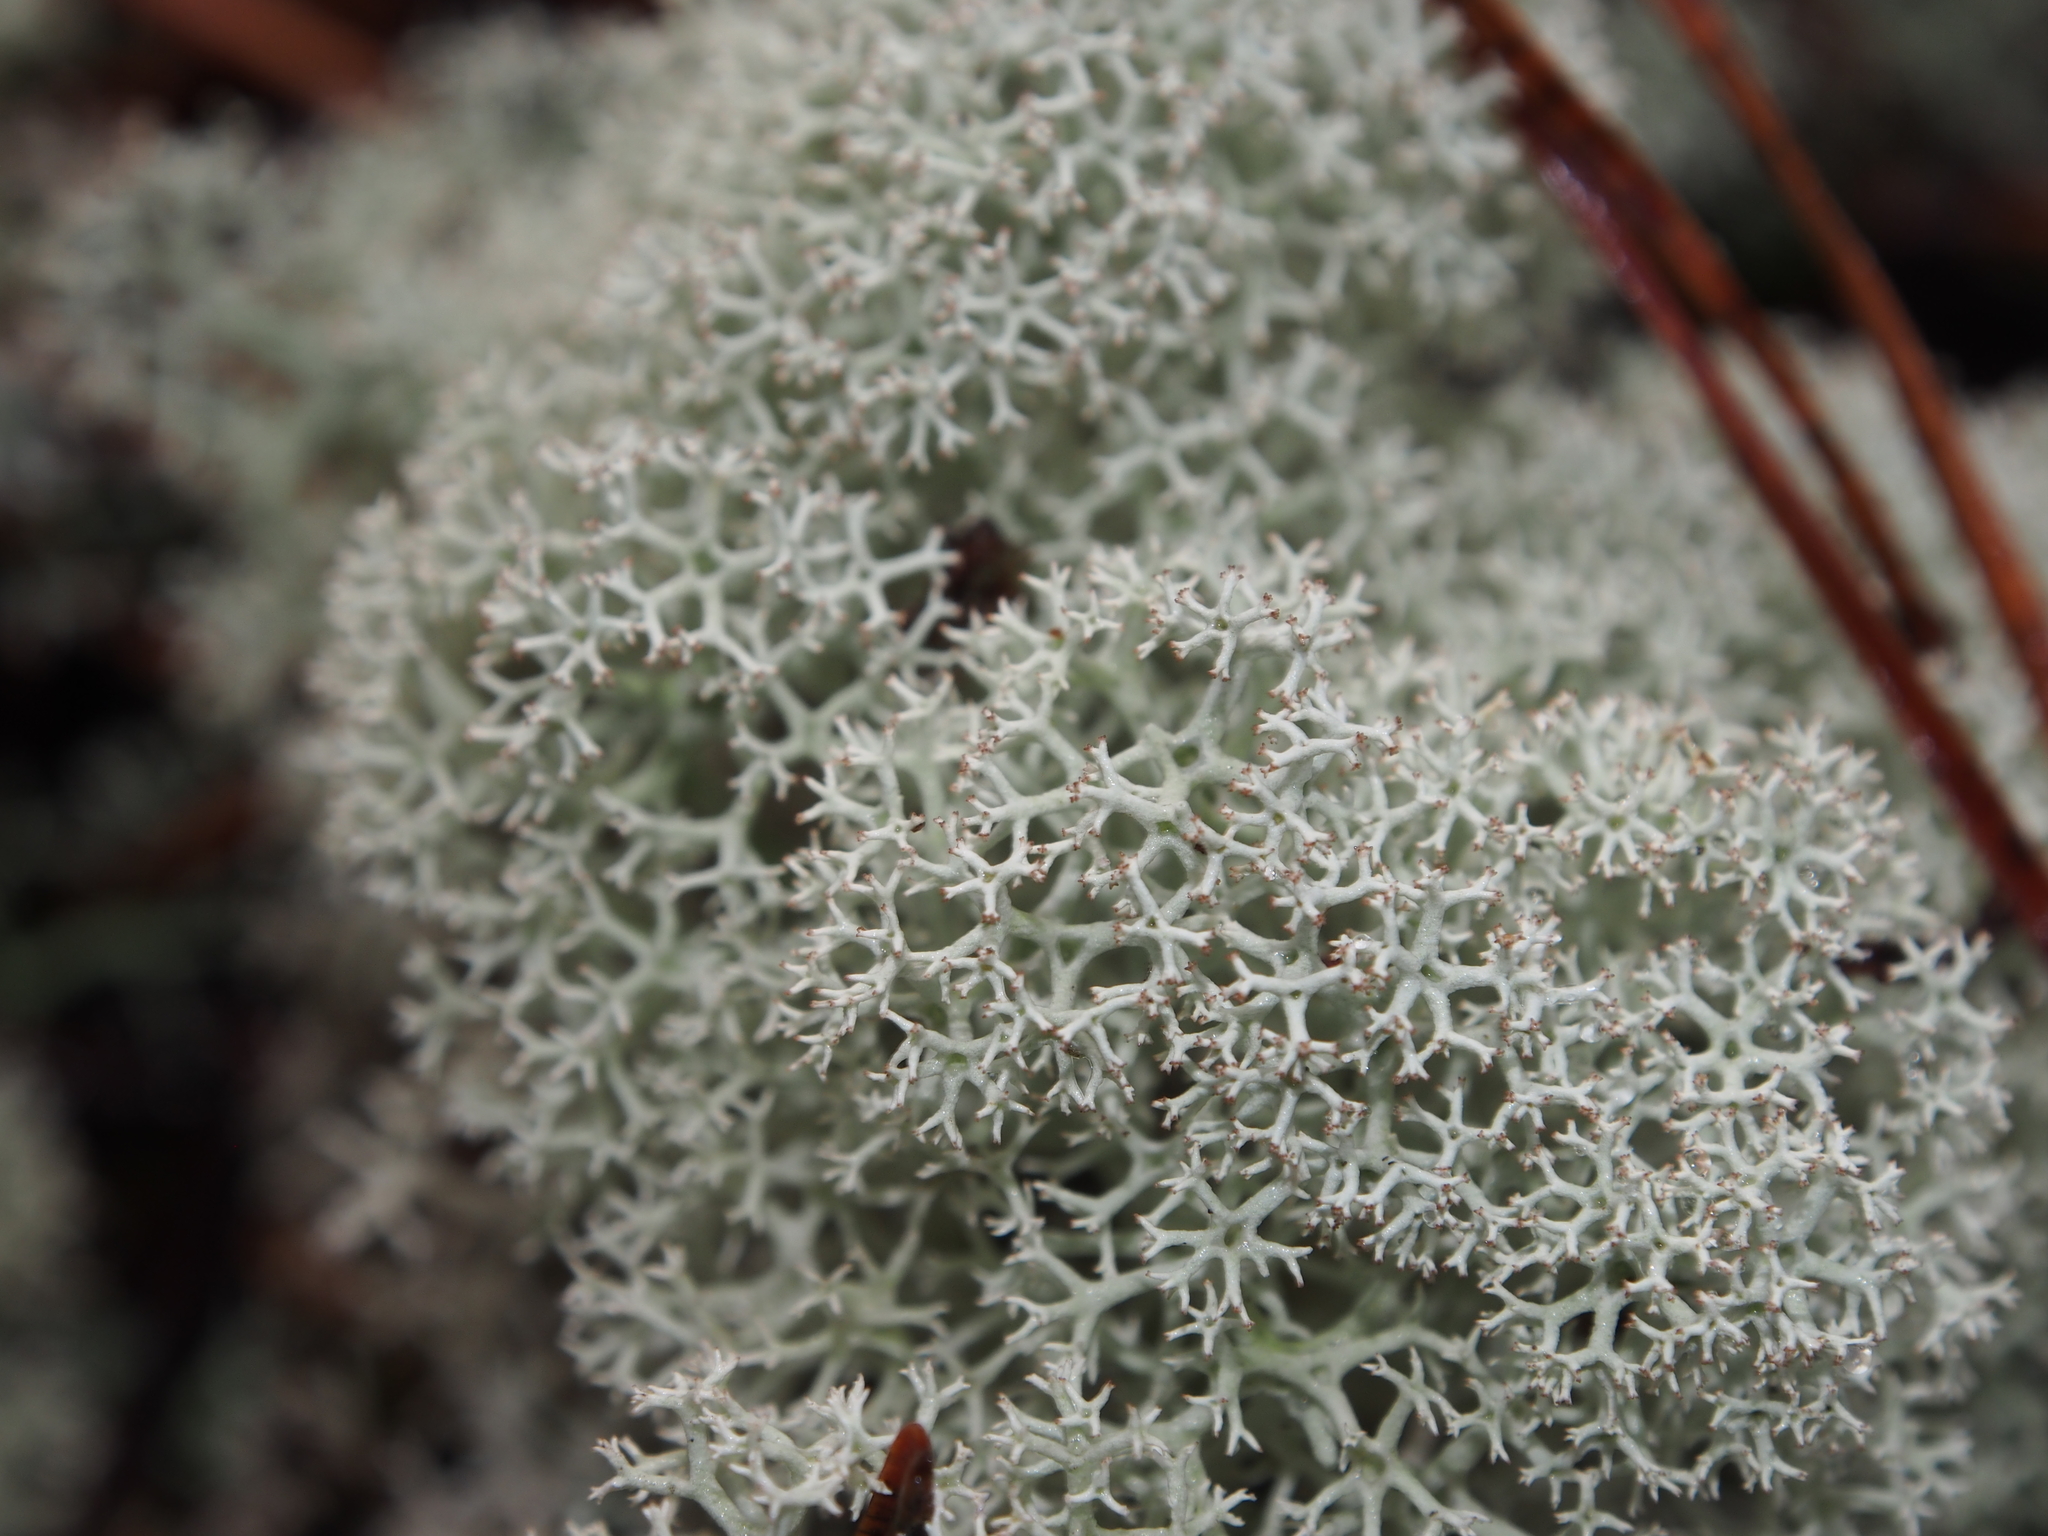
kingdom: Fungi
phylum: Ascomycota
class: Lecanoromycetes
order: Lecanorales
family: Cladoniaceae
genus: Cladonia
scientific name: Cladonia stellaris
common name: Star-tipped reindeer lichen
